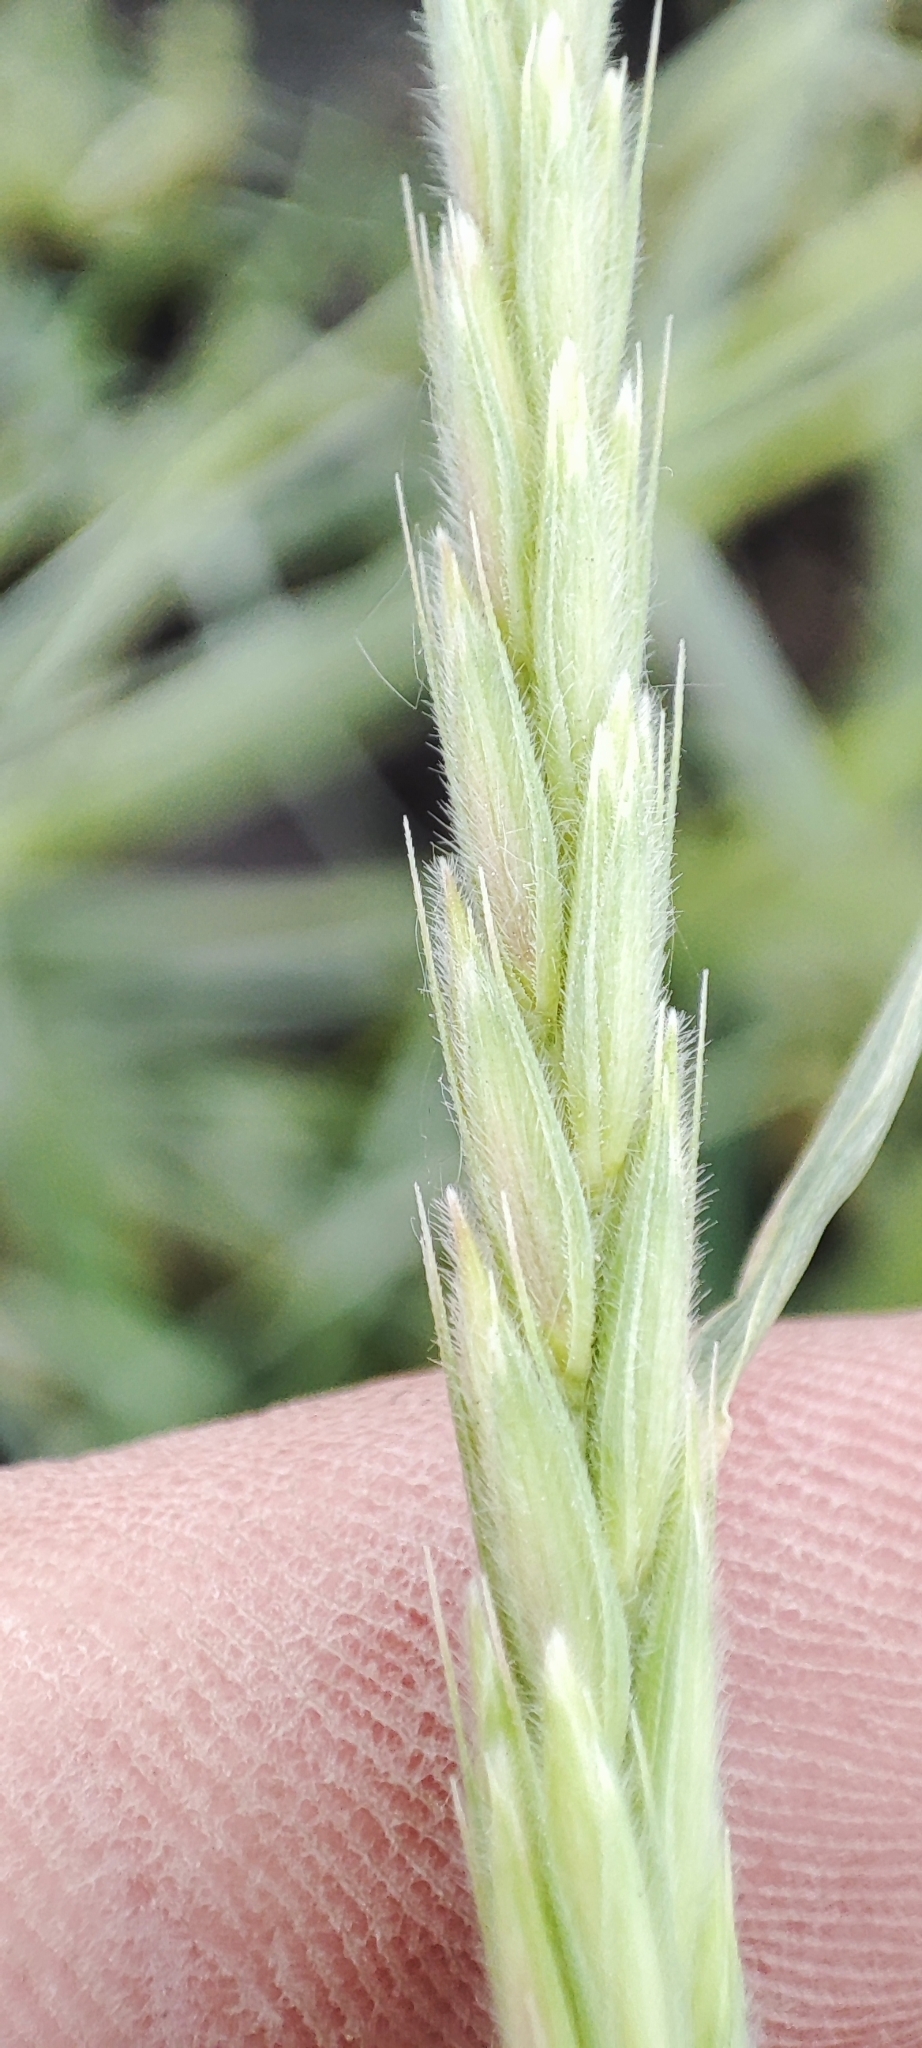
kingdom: Plantae
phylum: Tracheophyta
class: Liliopsida
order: Poales
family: Poaceae
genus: Leymus
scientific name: Leymus paboanus
